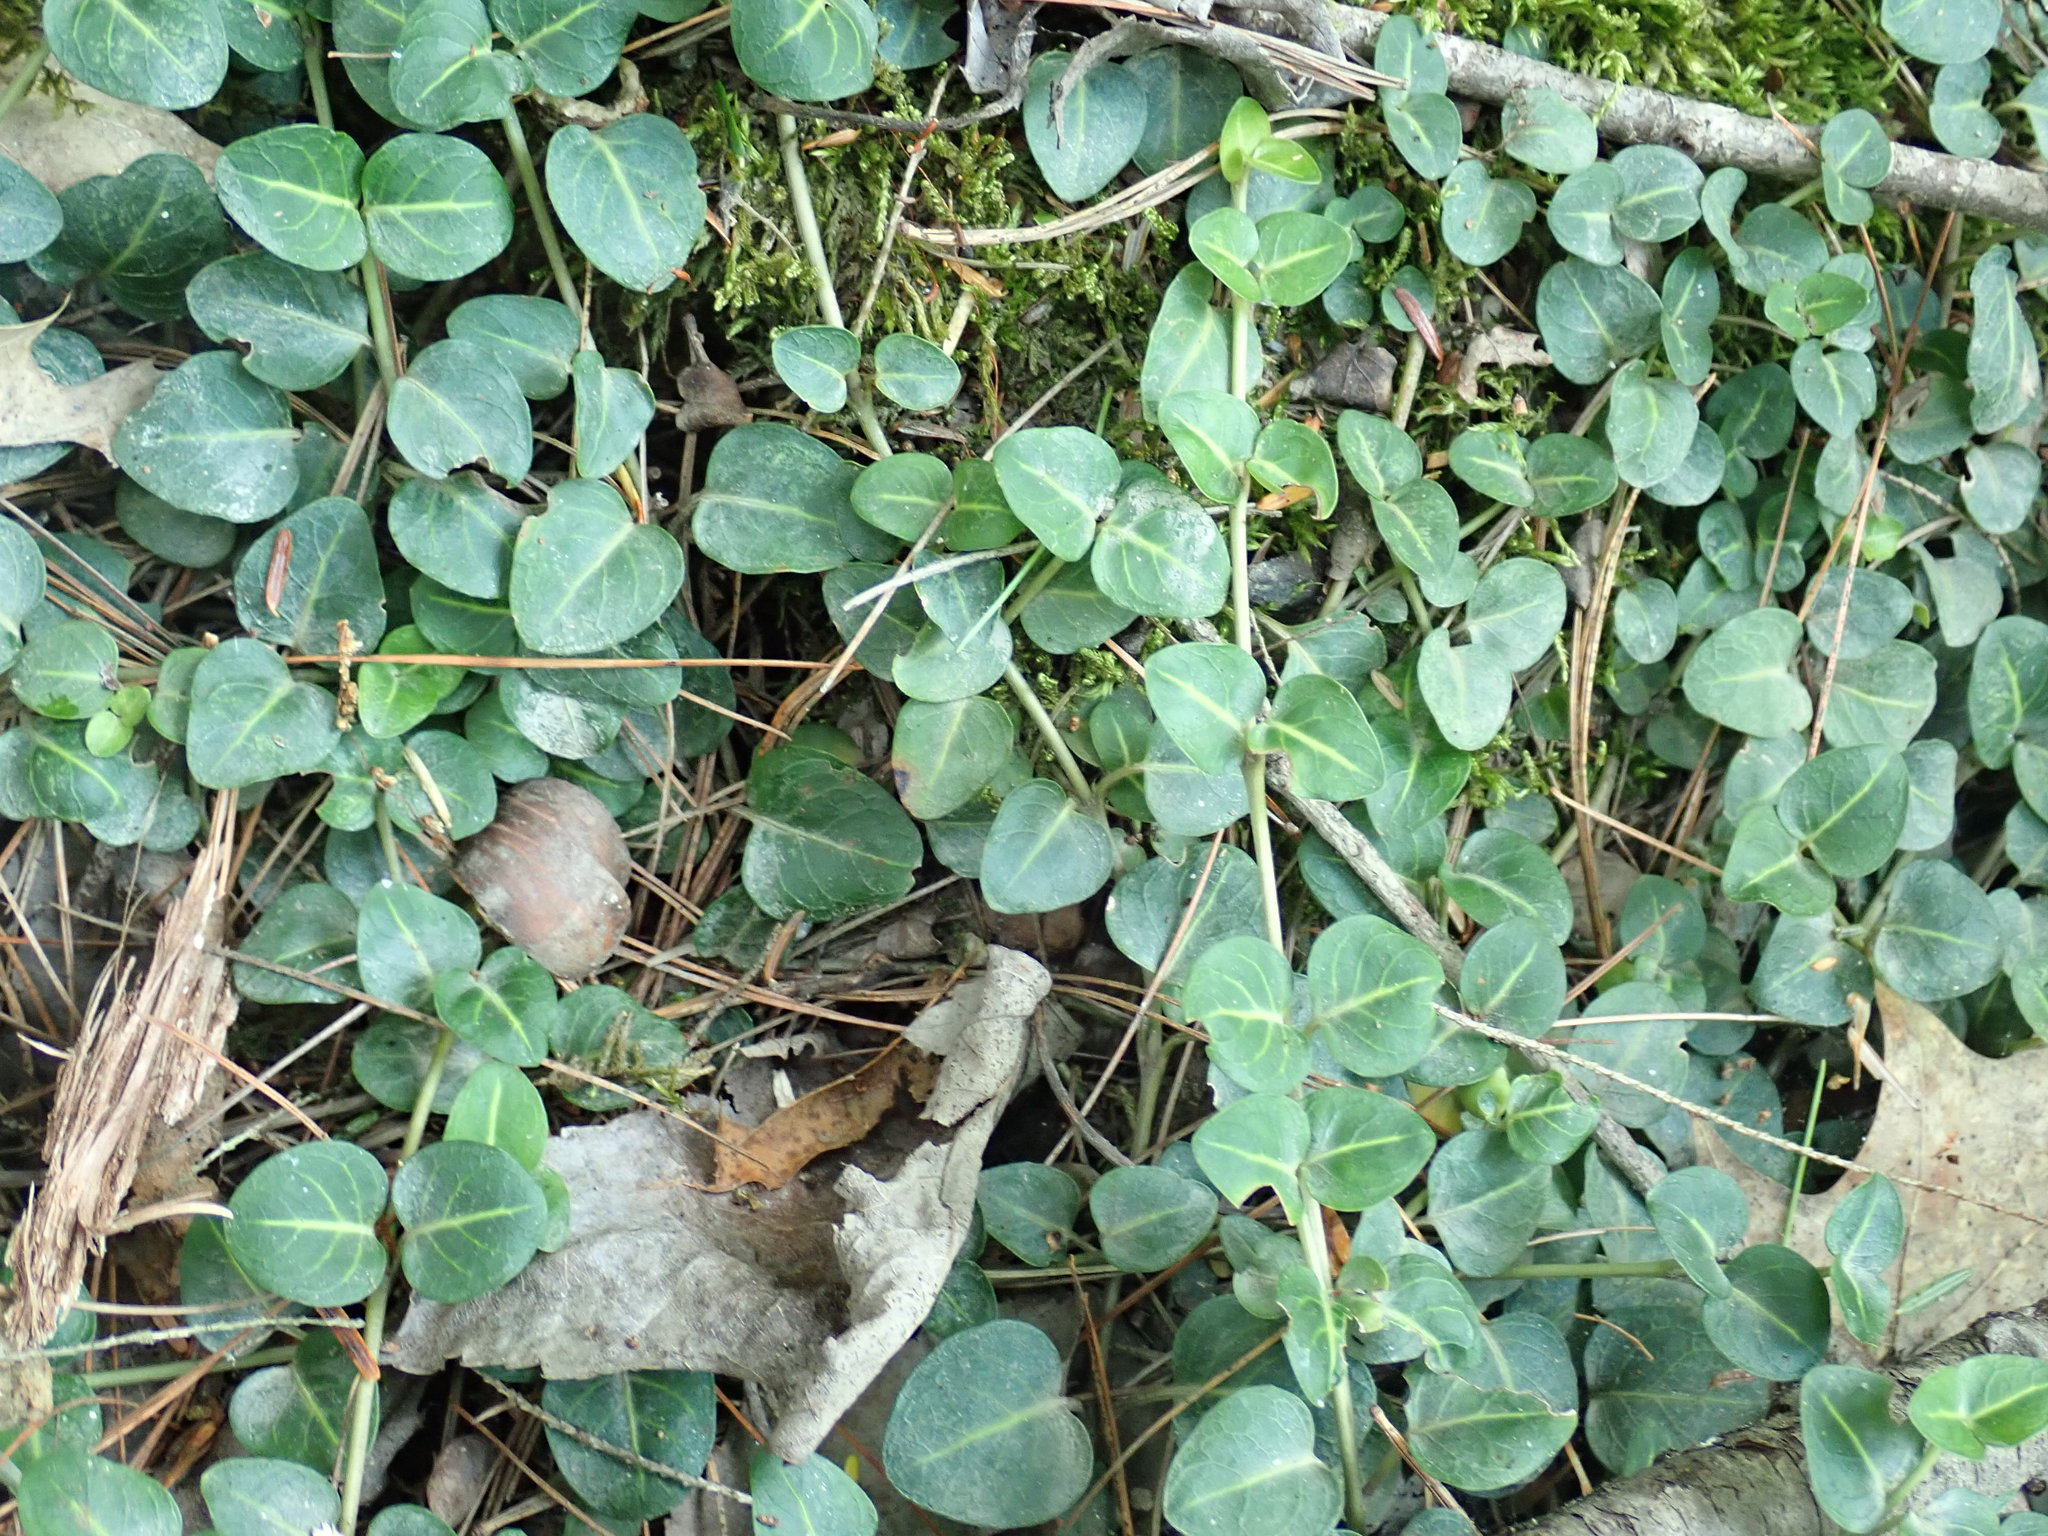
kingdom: Plantae
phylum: Tracheophyta
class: Magnoliopsida
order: Gentianales
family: Rubiaceae
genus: Mitchella
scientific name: Mitchella repens
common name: Partridge-berry
